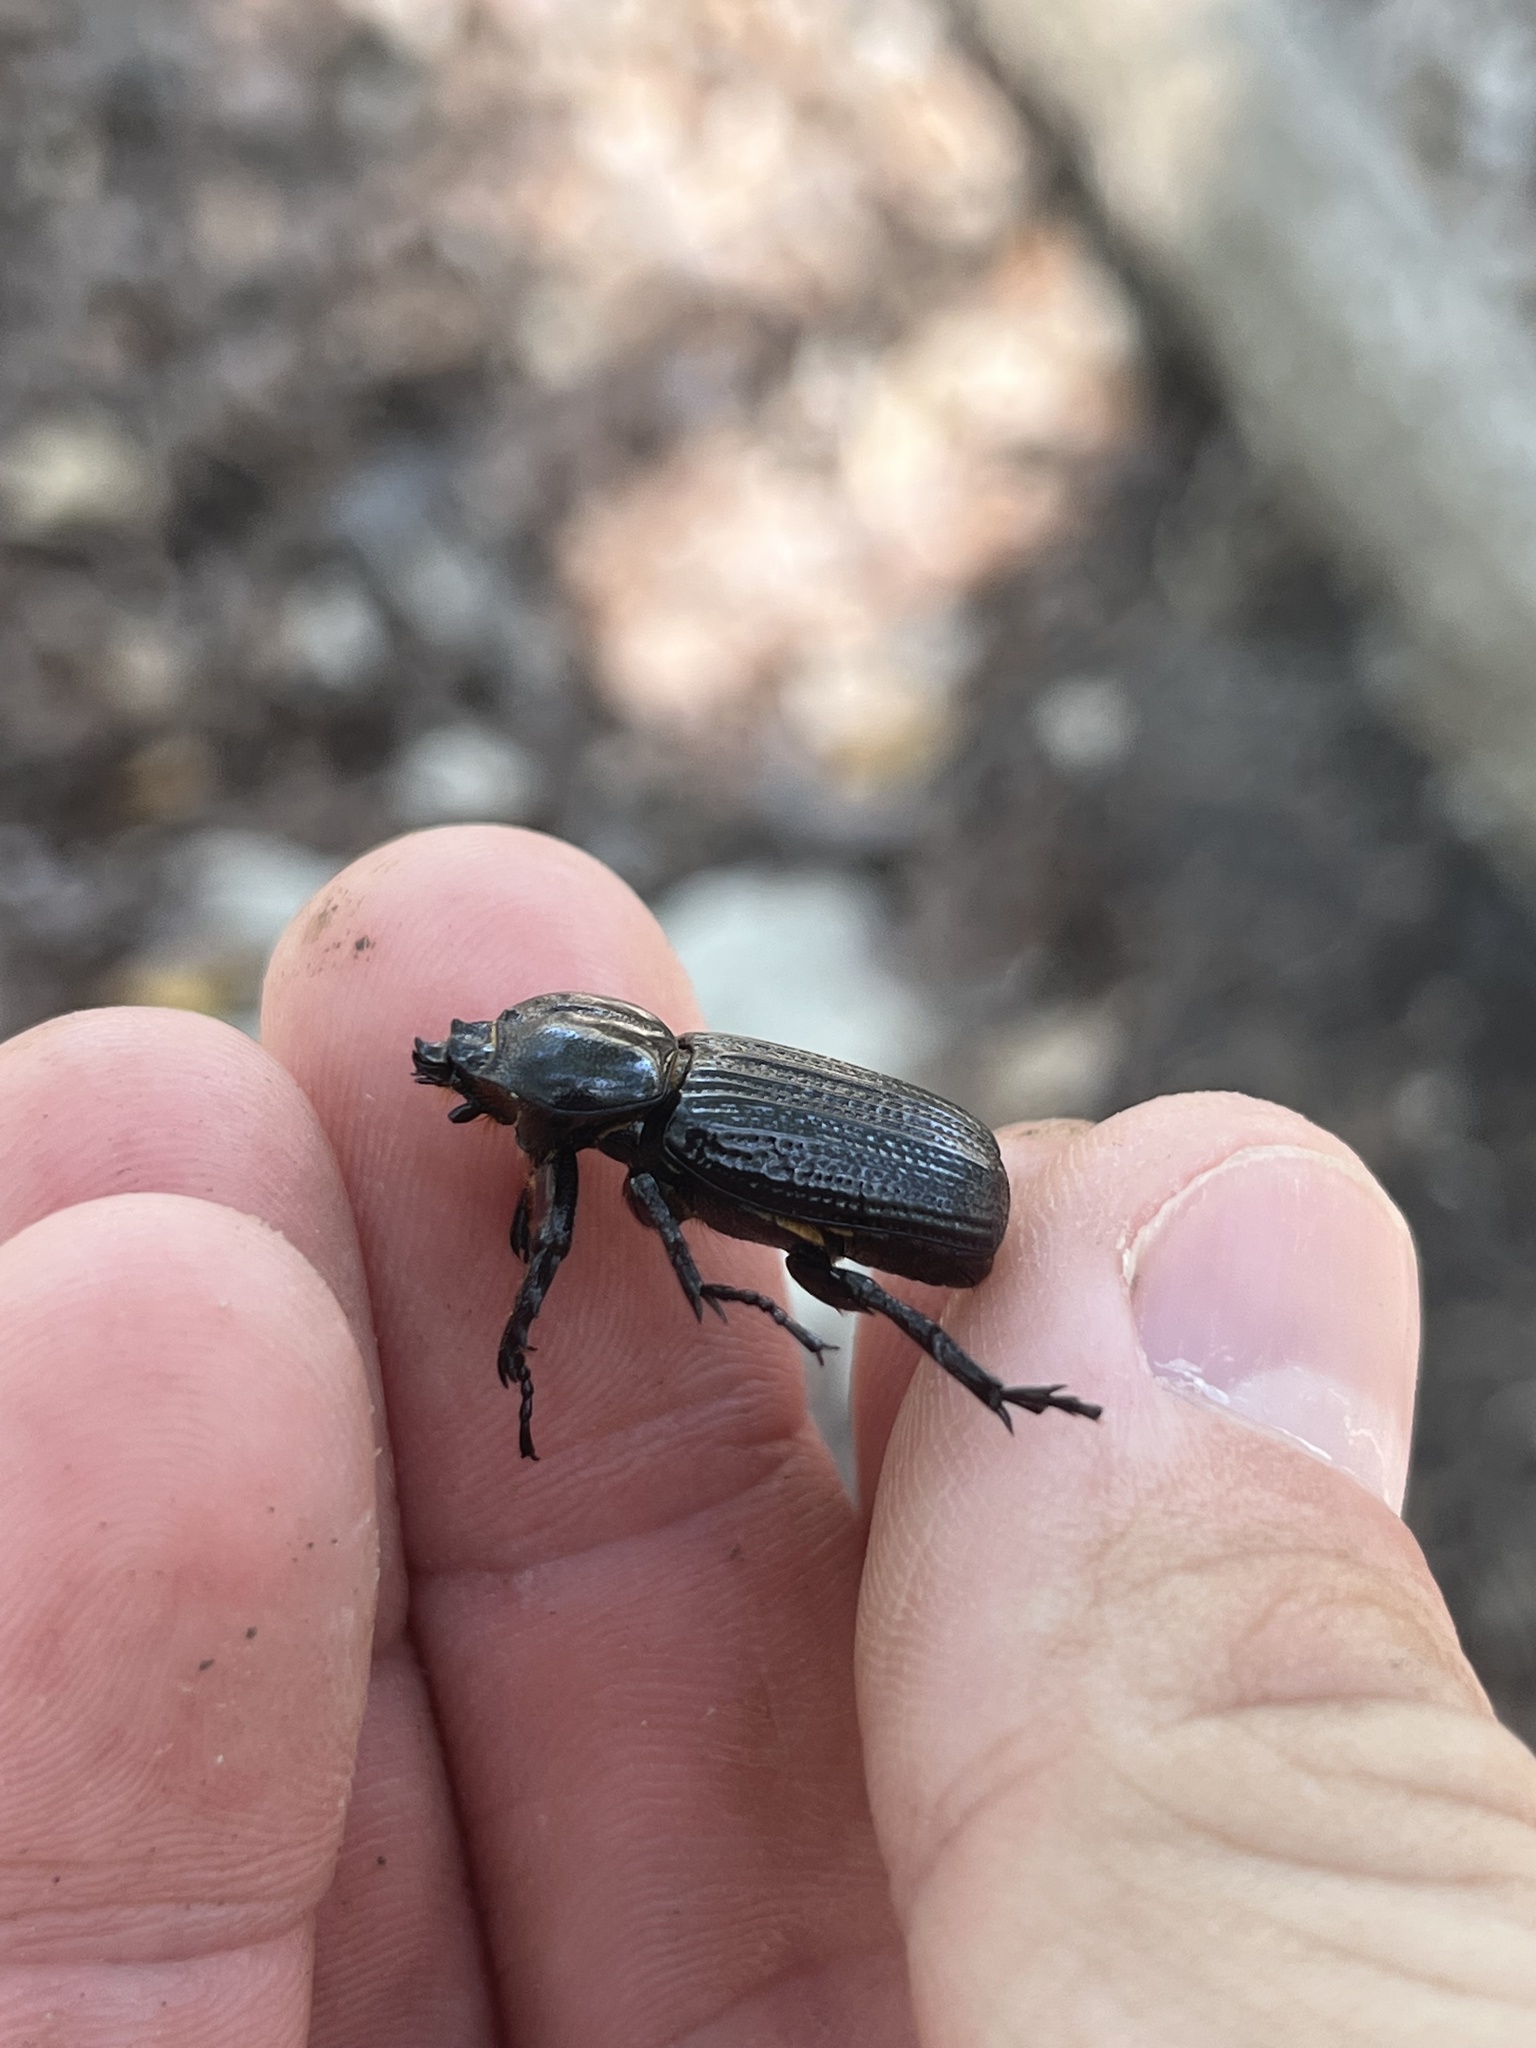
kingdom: Animalia
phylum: Arthropoda
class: Insecta
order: Coleoptera
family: Scarabaeidae
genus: Phileurus
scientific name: Phileurus valgus
